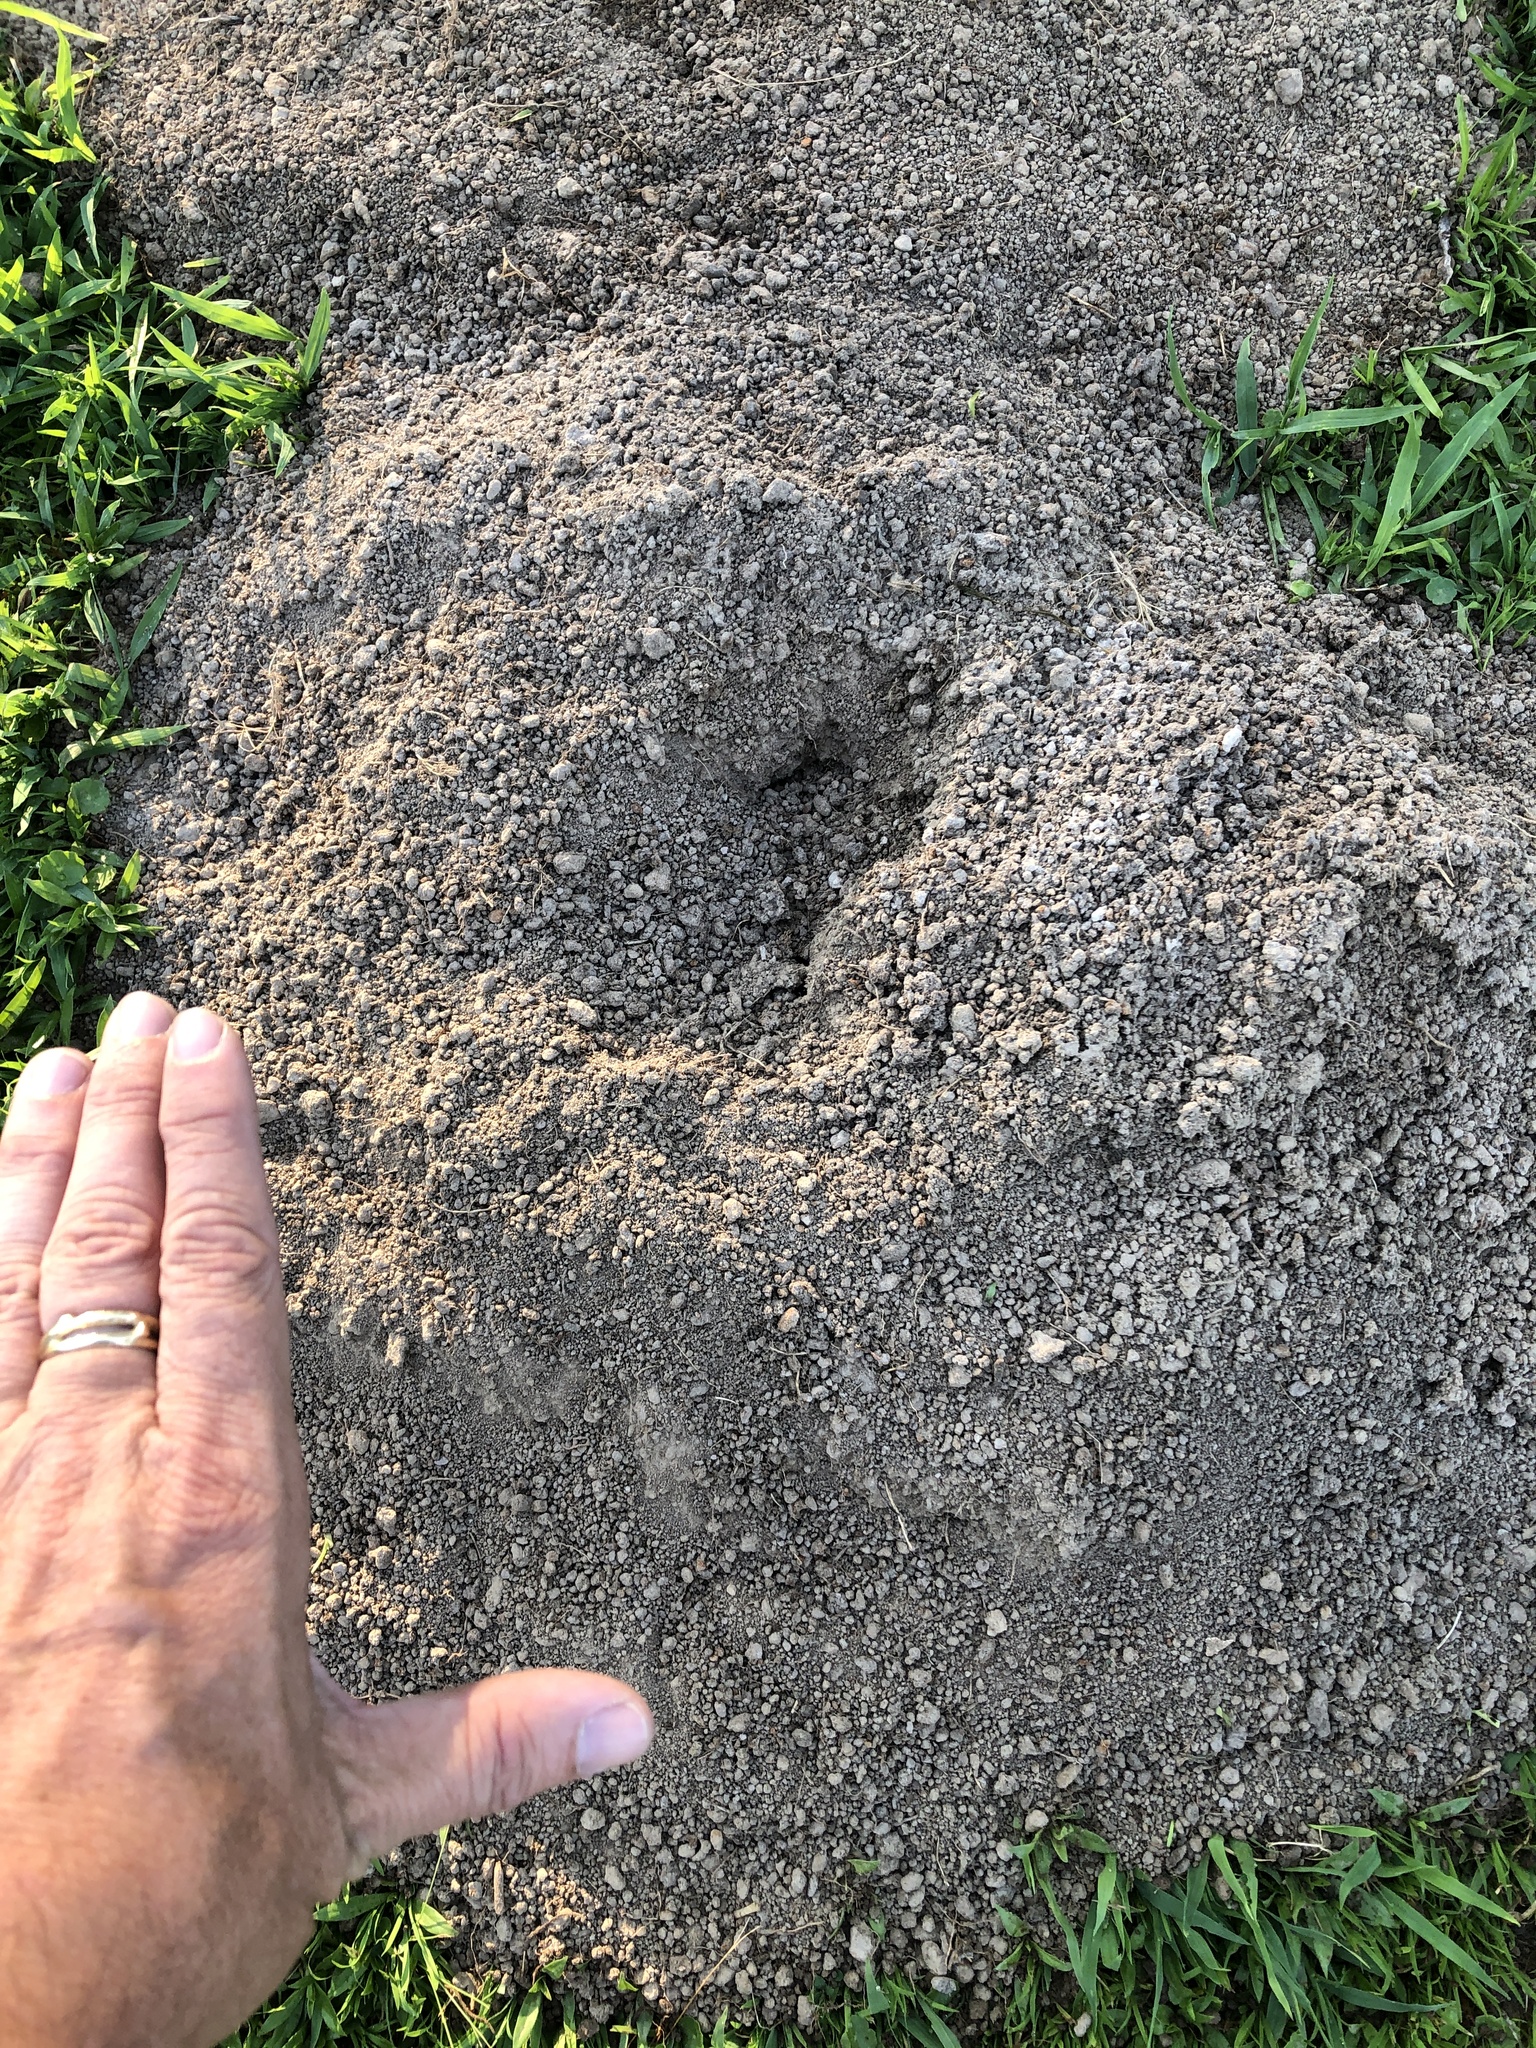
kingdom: Animalia
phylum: Chordata
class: Mammalia
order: Rodentia
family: Geomyidae
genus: Geomys
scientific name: Geomys breviceps
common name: Baird's pocket gopher
